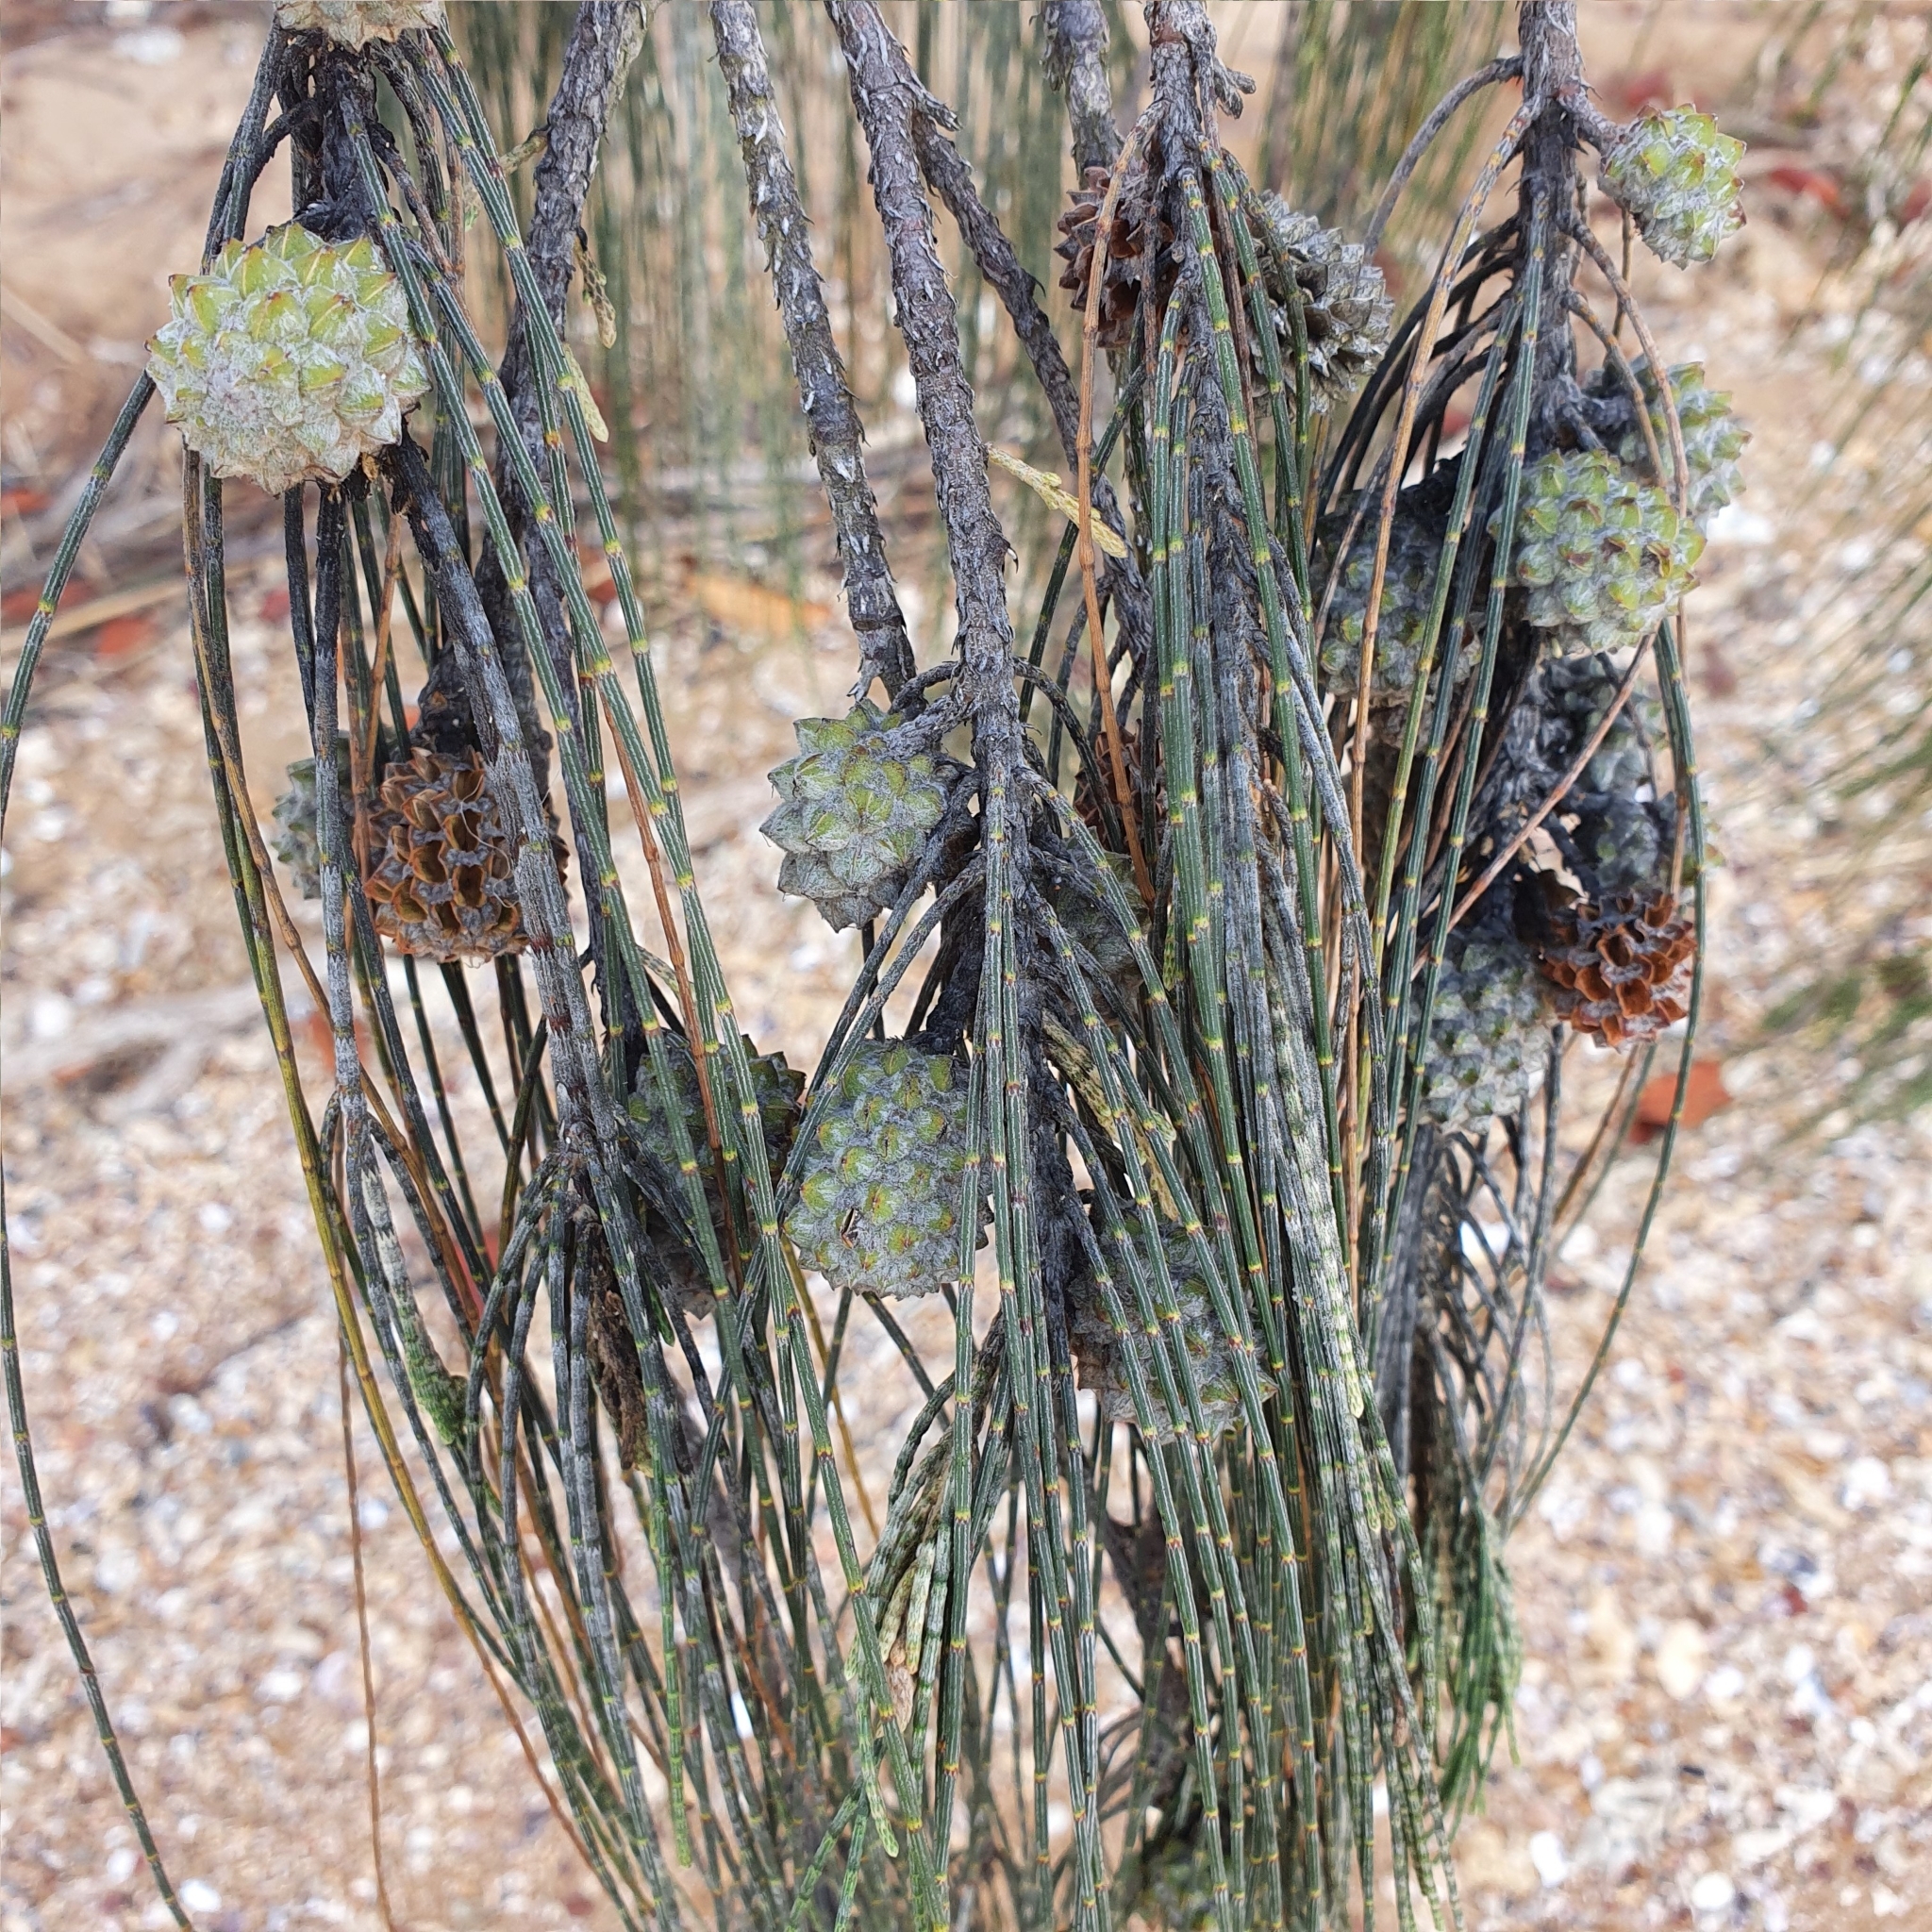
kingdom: Plantae
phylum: Tracheophyta
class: Magnoliopsida
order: Fagales
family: Casuarinaceae
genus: Casuarina
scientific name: Casuarina equisetifolia
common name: Beach sheoak
